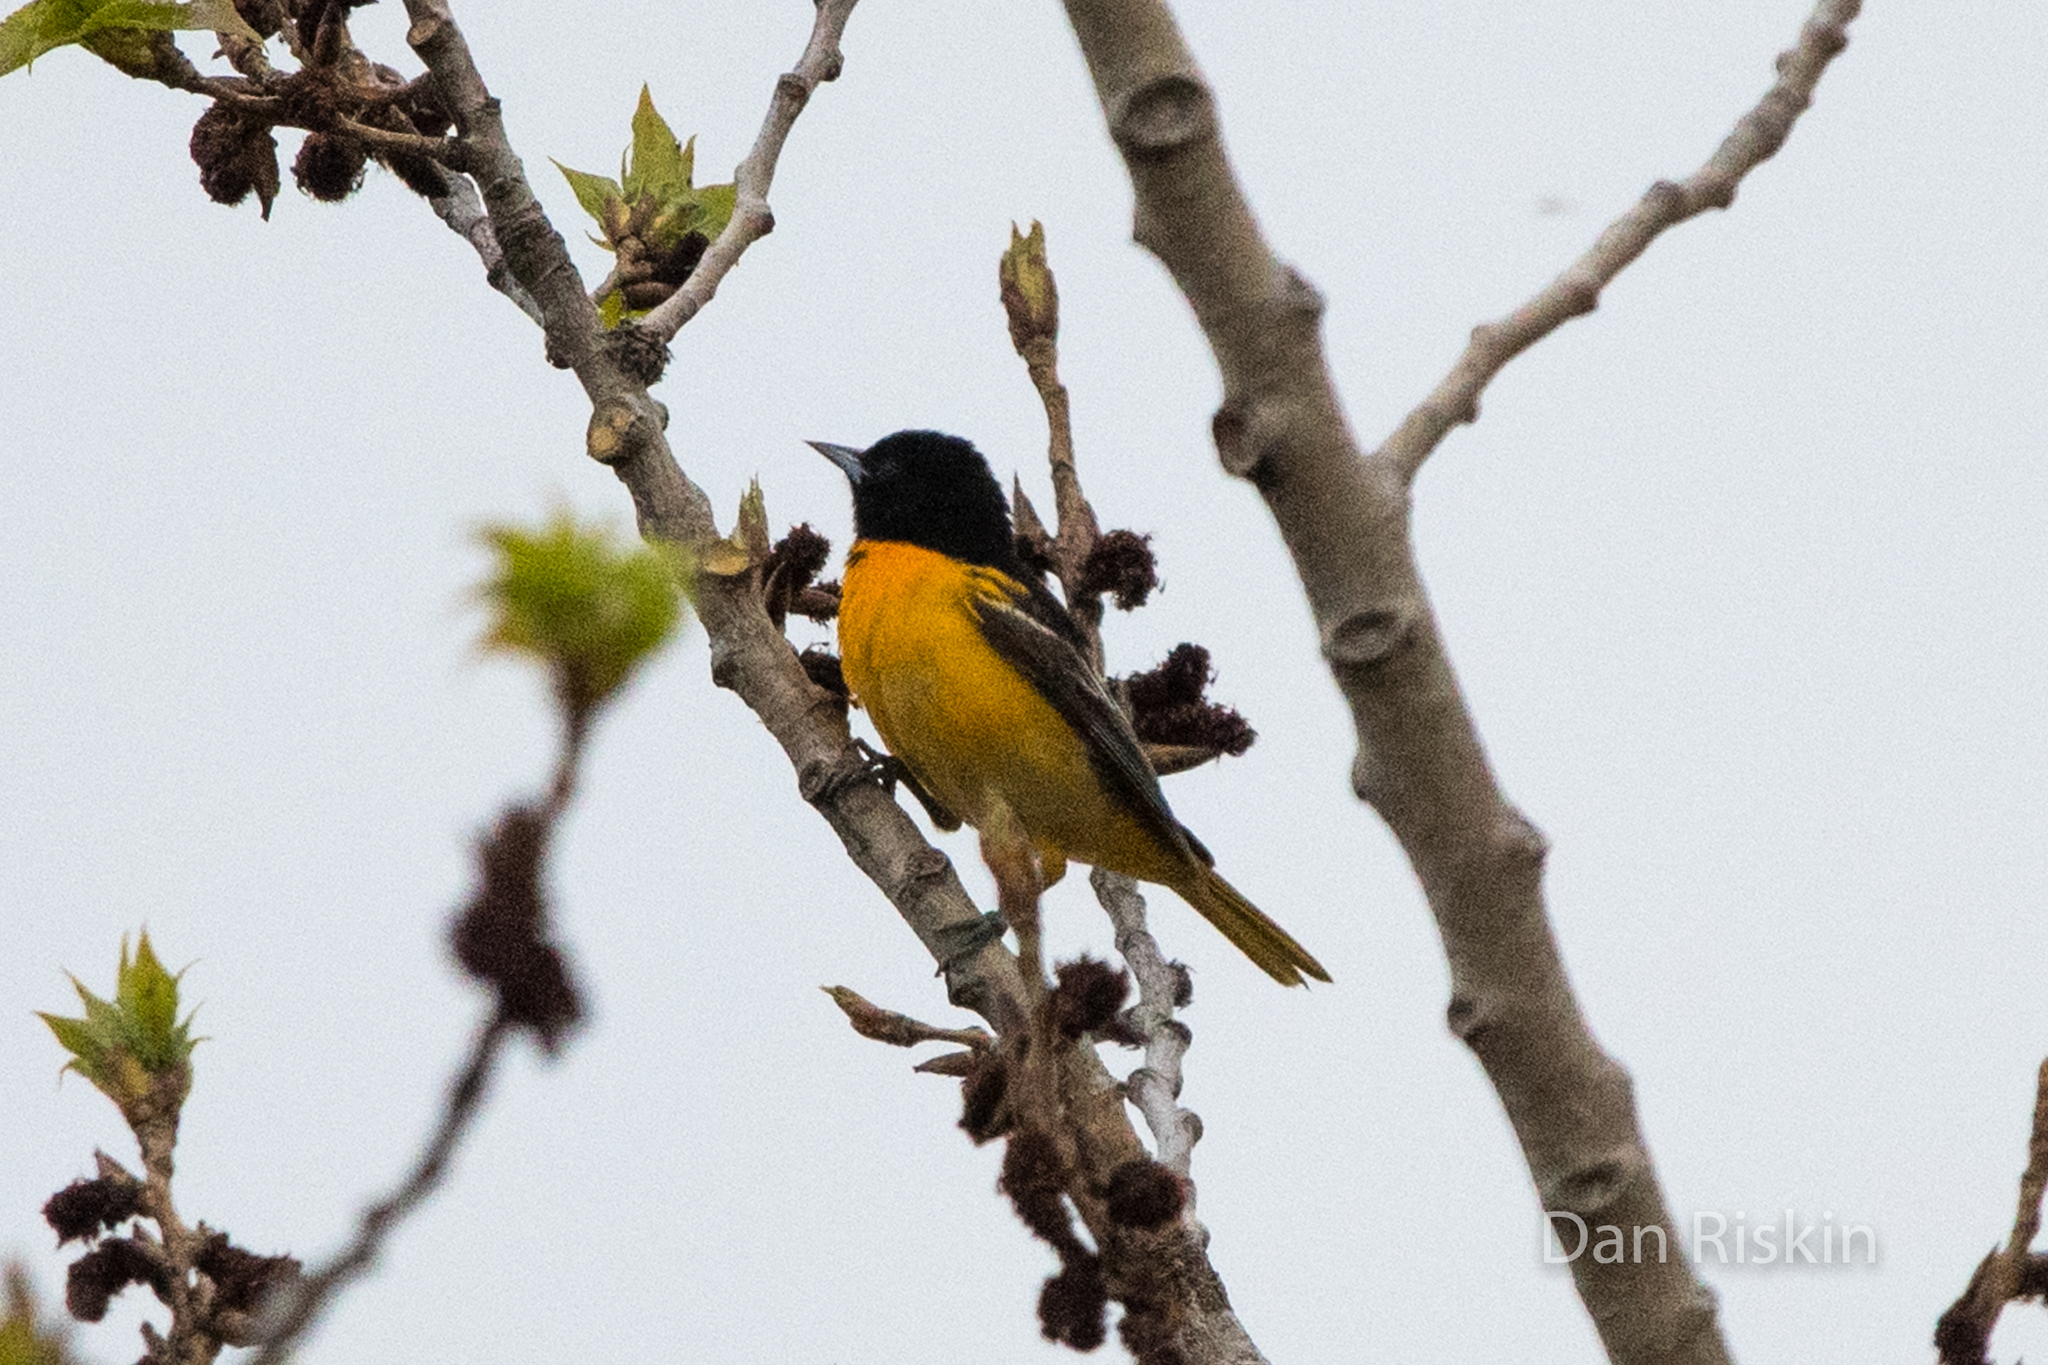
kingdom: Animalia
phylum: Chordata
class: Aves
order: Passeriformes
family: Icteridae
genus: Icterus
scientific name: Icterus galbula
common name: Baltimore oriole
